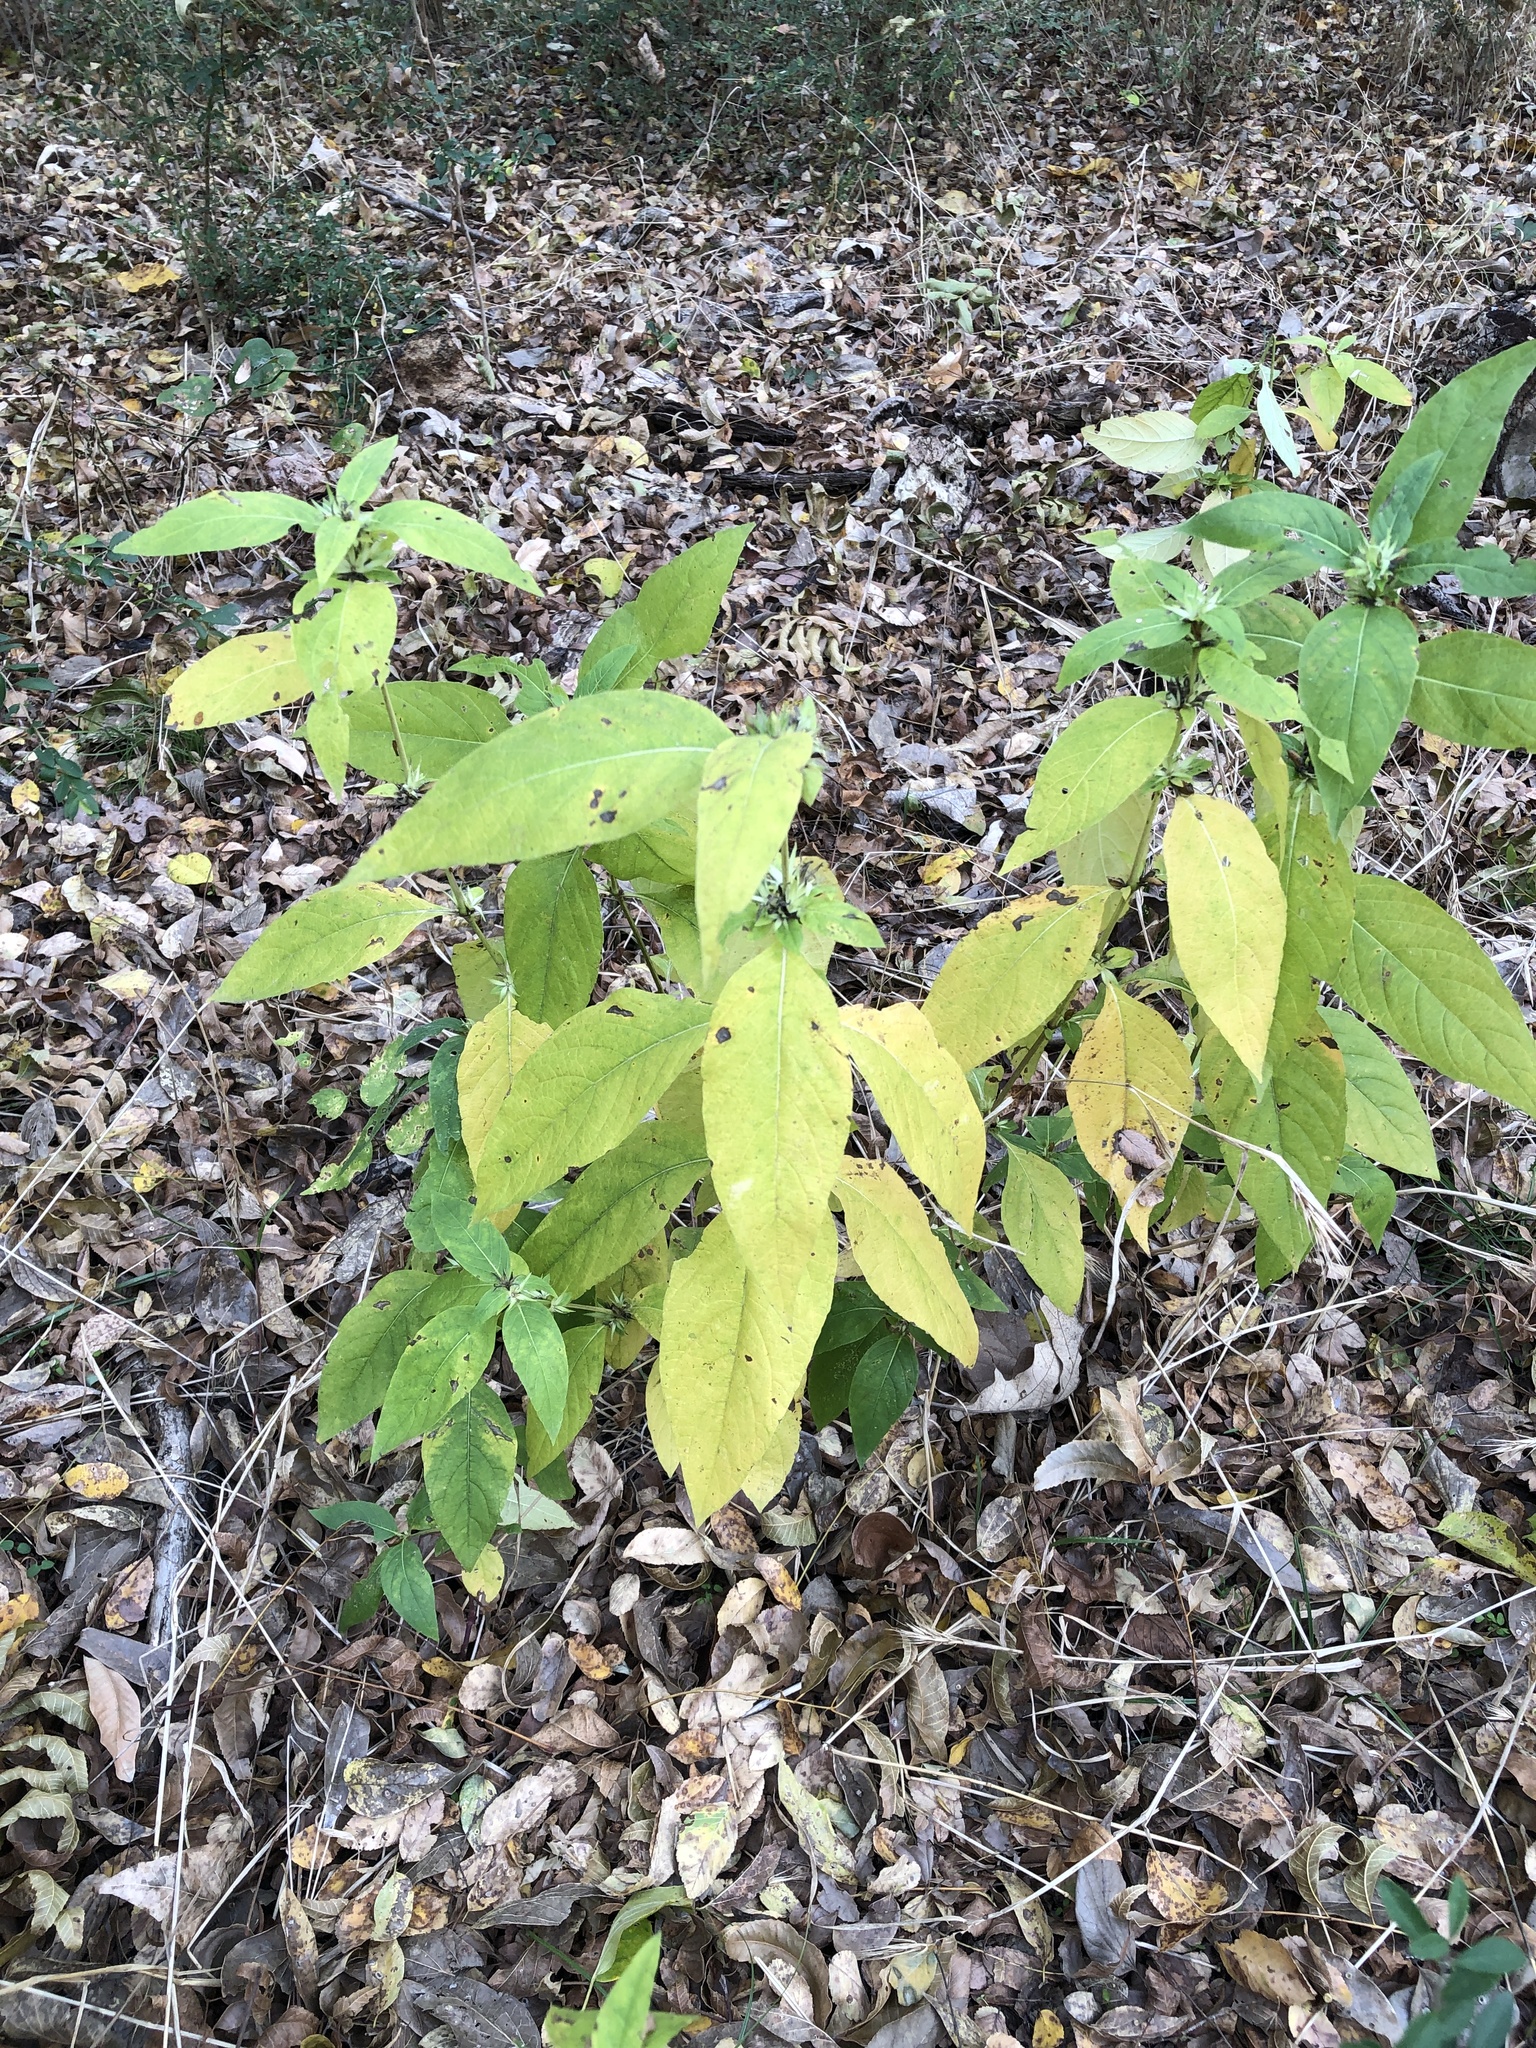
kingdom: Plantae
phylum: Tracheophyta
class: Magnoliopsida
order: Lamiales
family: Acanthaceae
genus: Ruellia
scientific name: Ruellia strepens
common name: Limestone wild petunia
